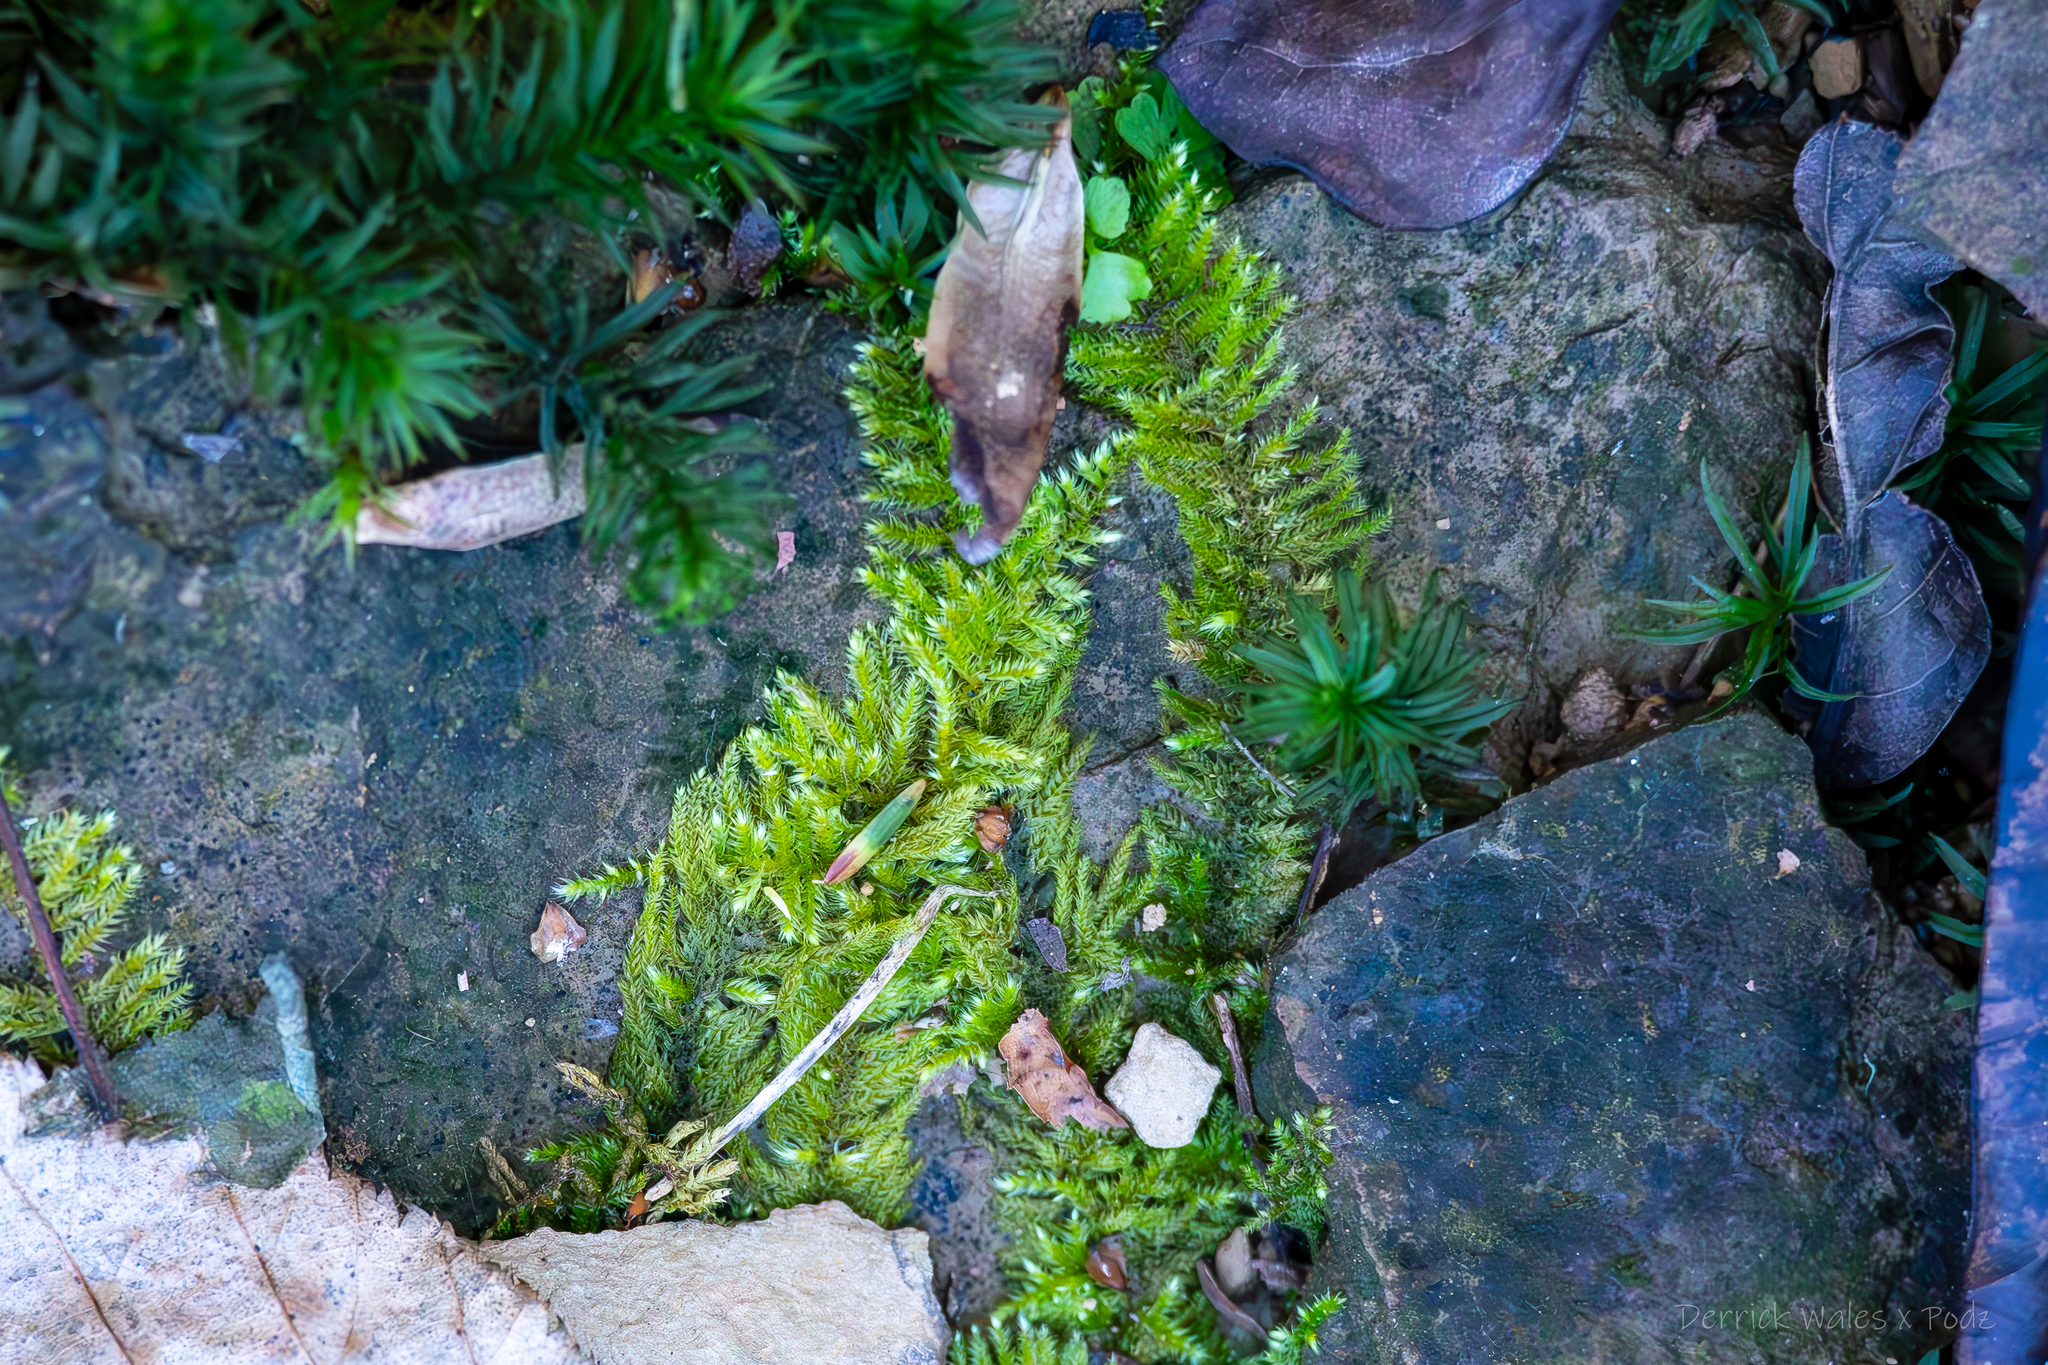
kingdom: Plantae
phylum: Bryophyta
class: Polytrichopsida
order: Polytrichales
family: Polytrichaceae
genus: Atrichum
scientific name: Atrichum cylindricum
